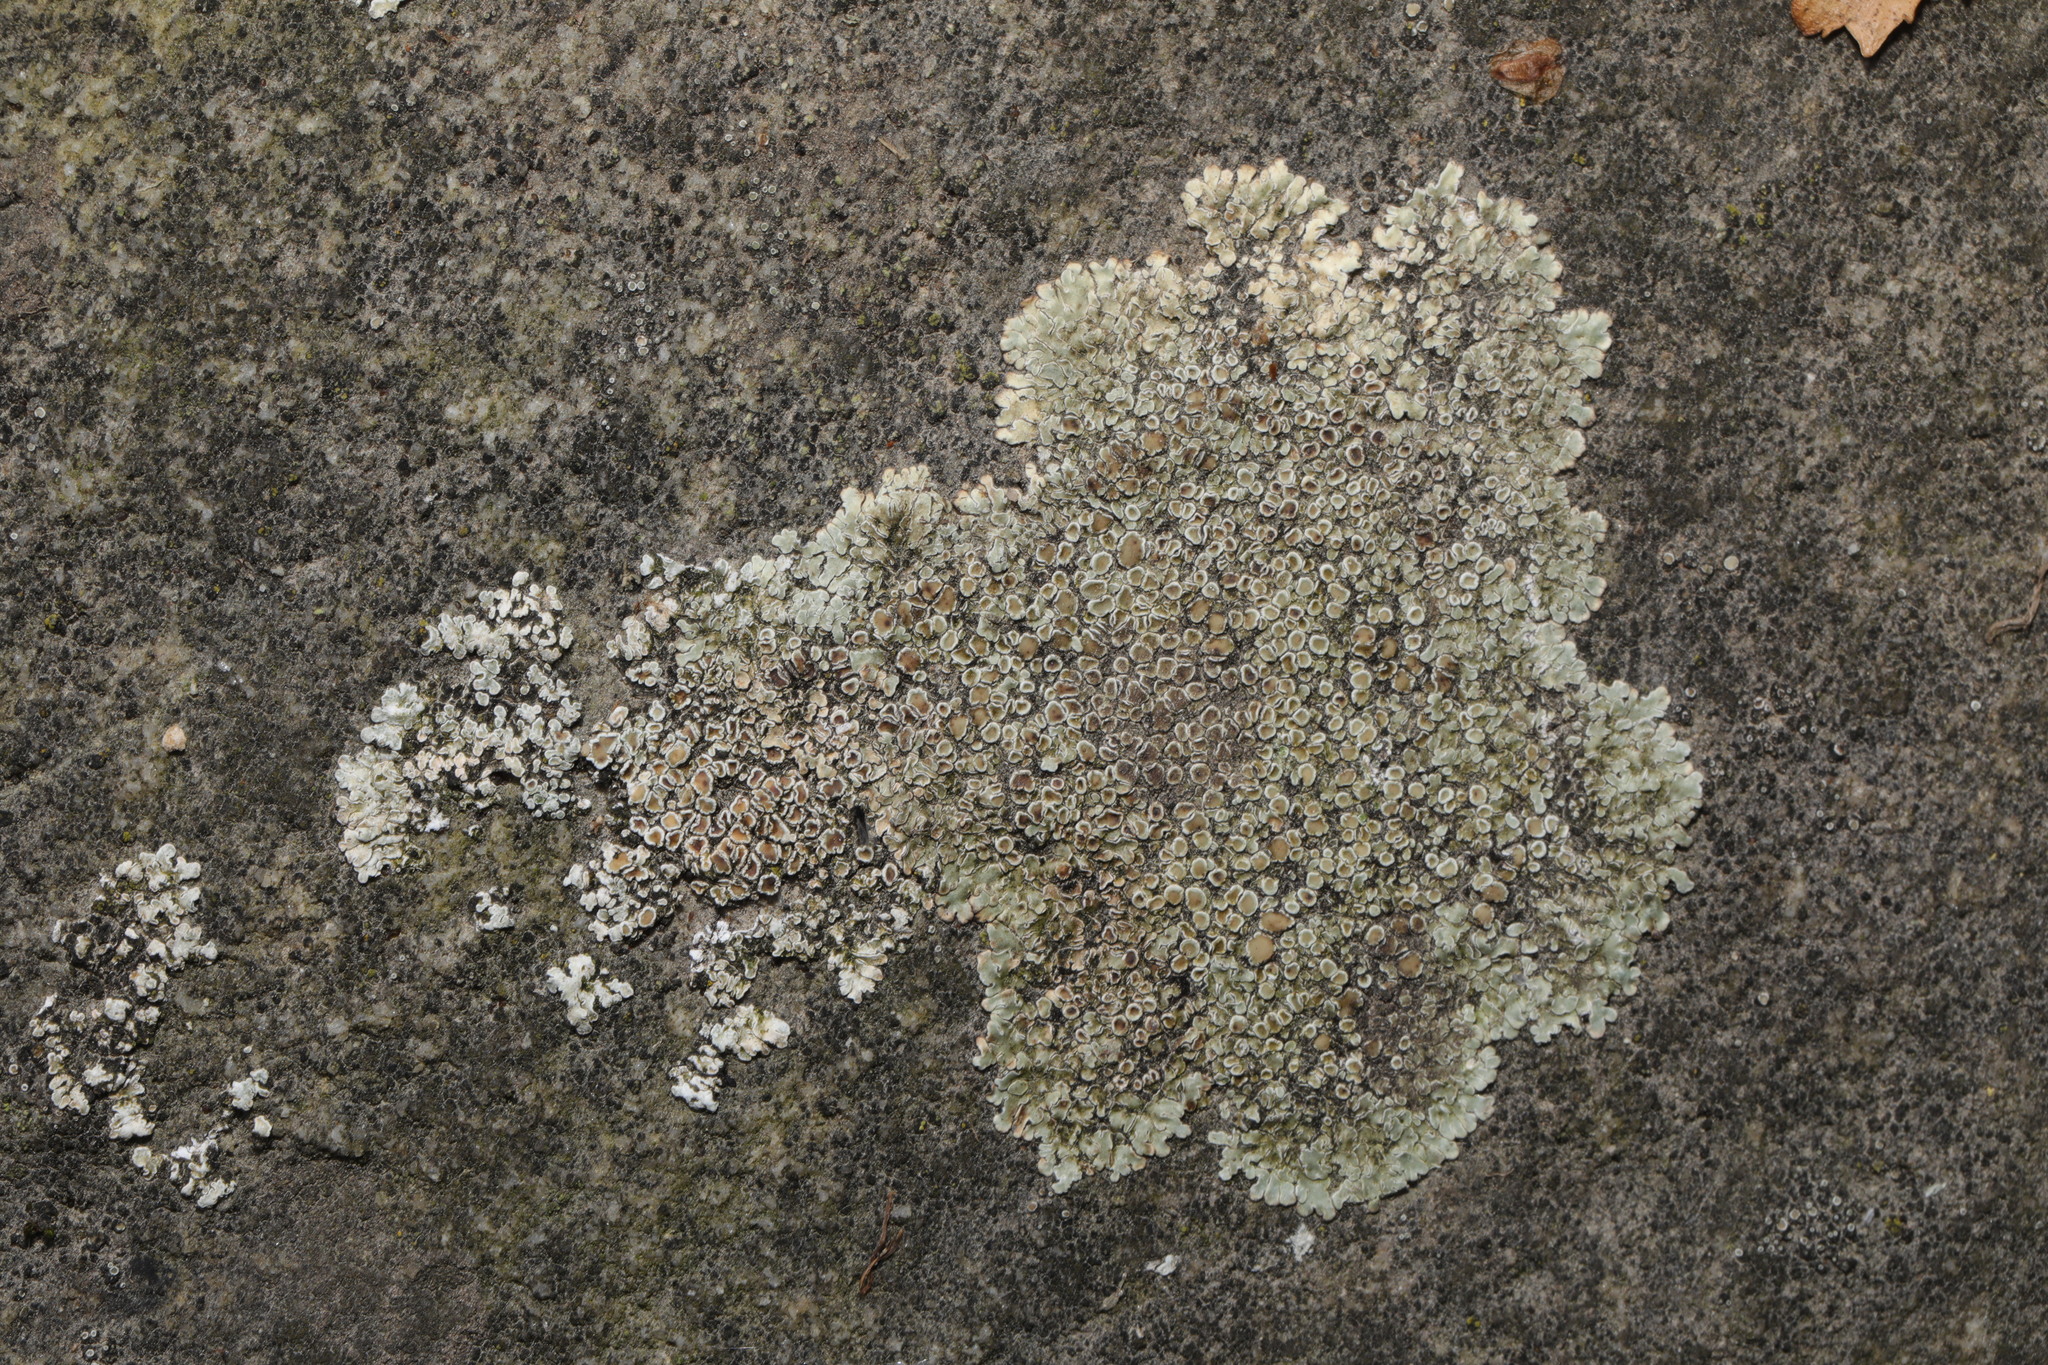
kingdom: Fungi
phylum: Ascomycota
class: Lecanoromycetes
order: Lecanorales
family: Lecanoraceae
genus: Protoparmeliopsis
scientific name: Protoparmeliopsis muralis
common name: Stonewall rim lichen
